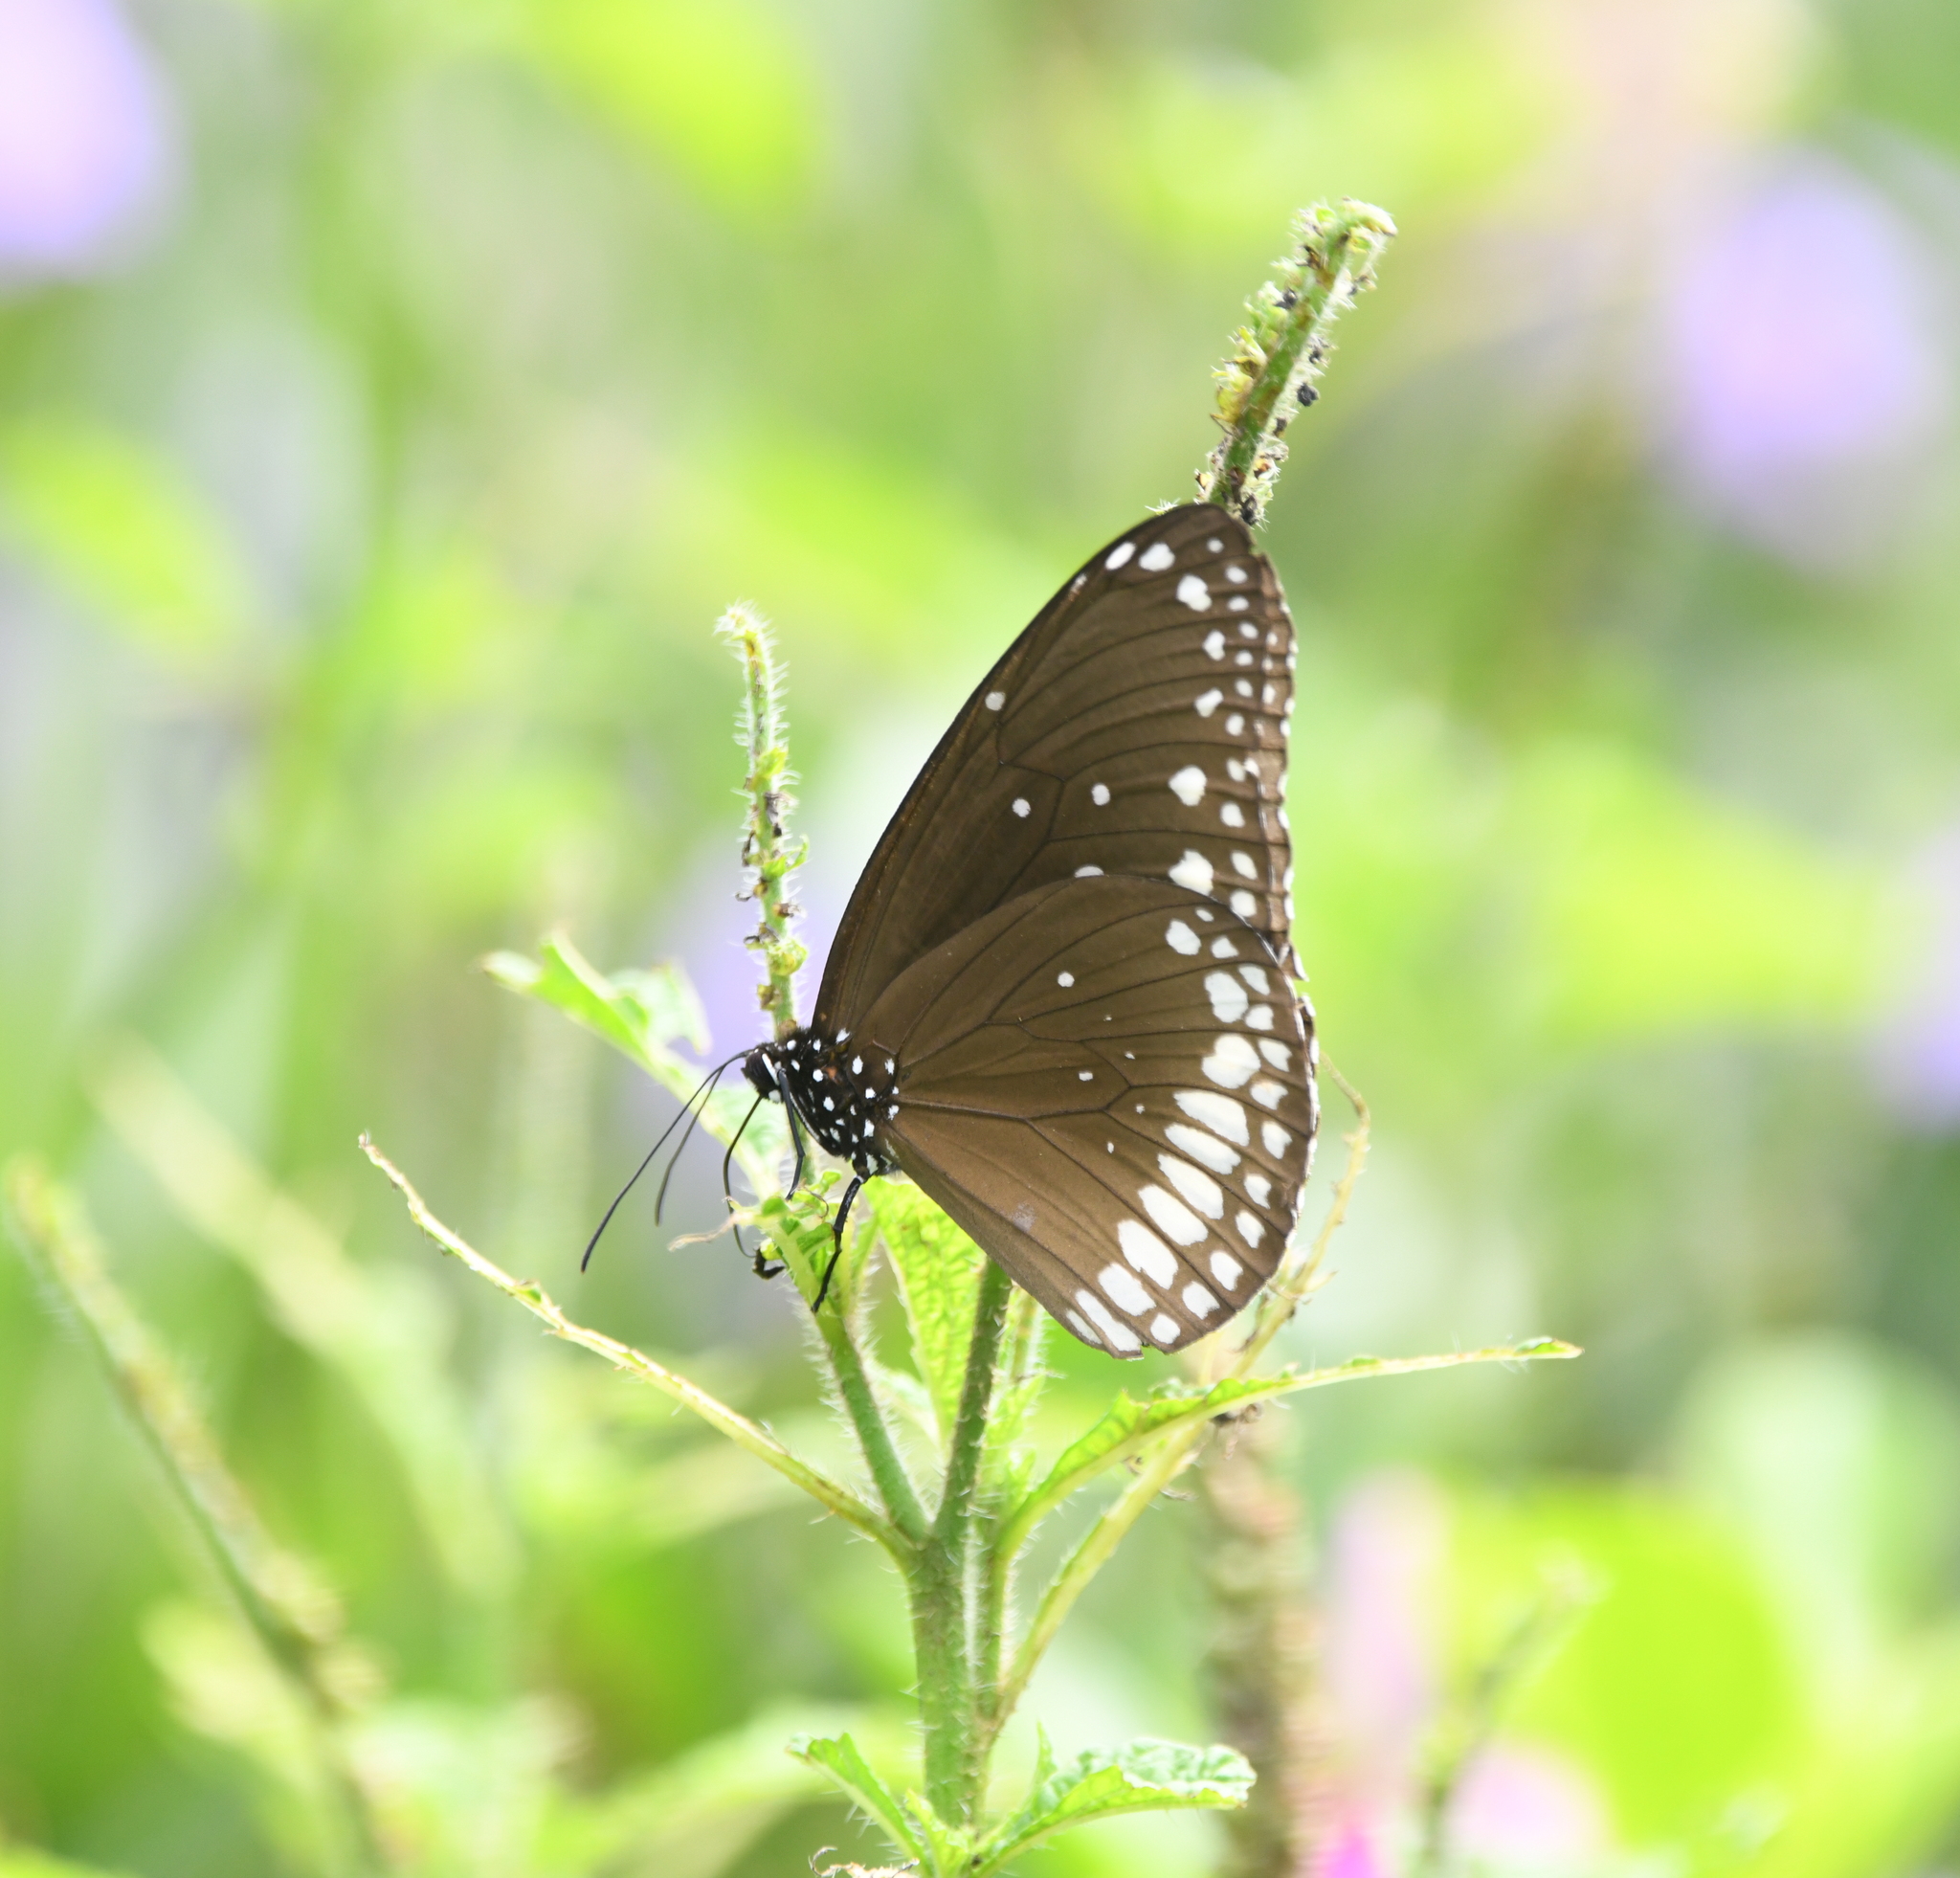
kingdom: Animalia
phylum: Arthropoda
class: Insecta
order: Lepidoptera
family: Nymphalidae
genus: Euploea
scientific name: Euploea core
